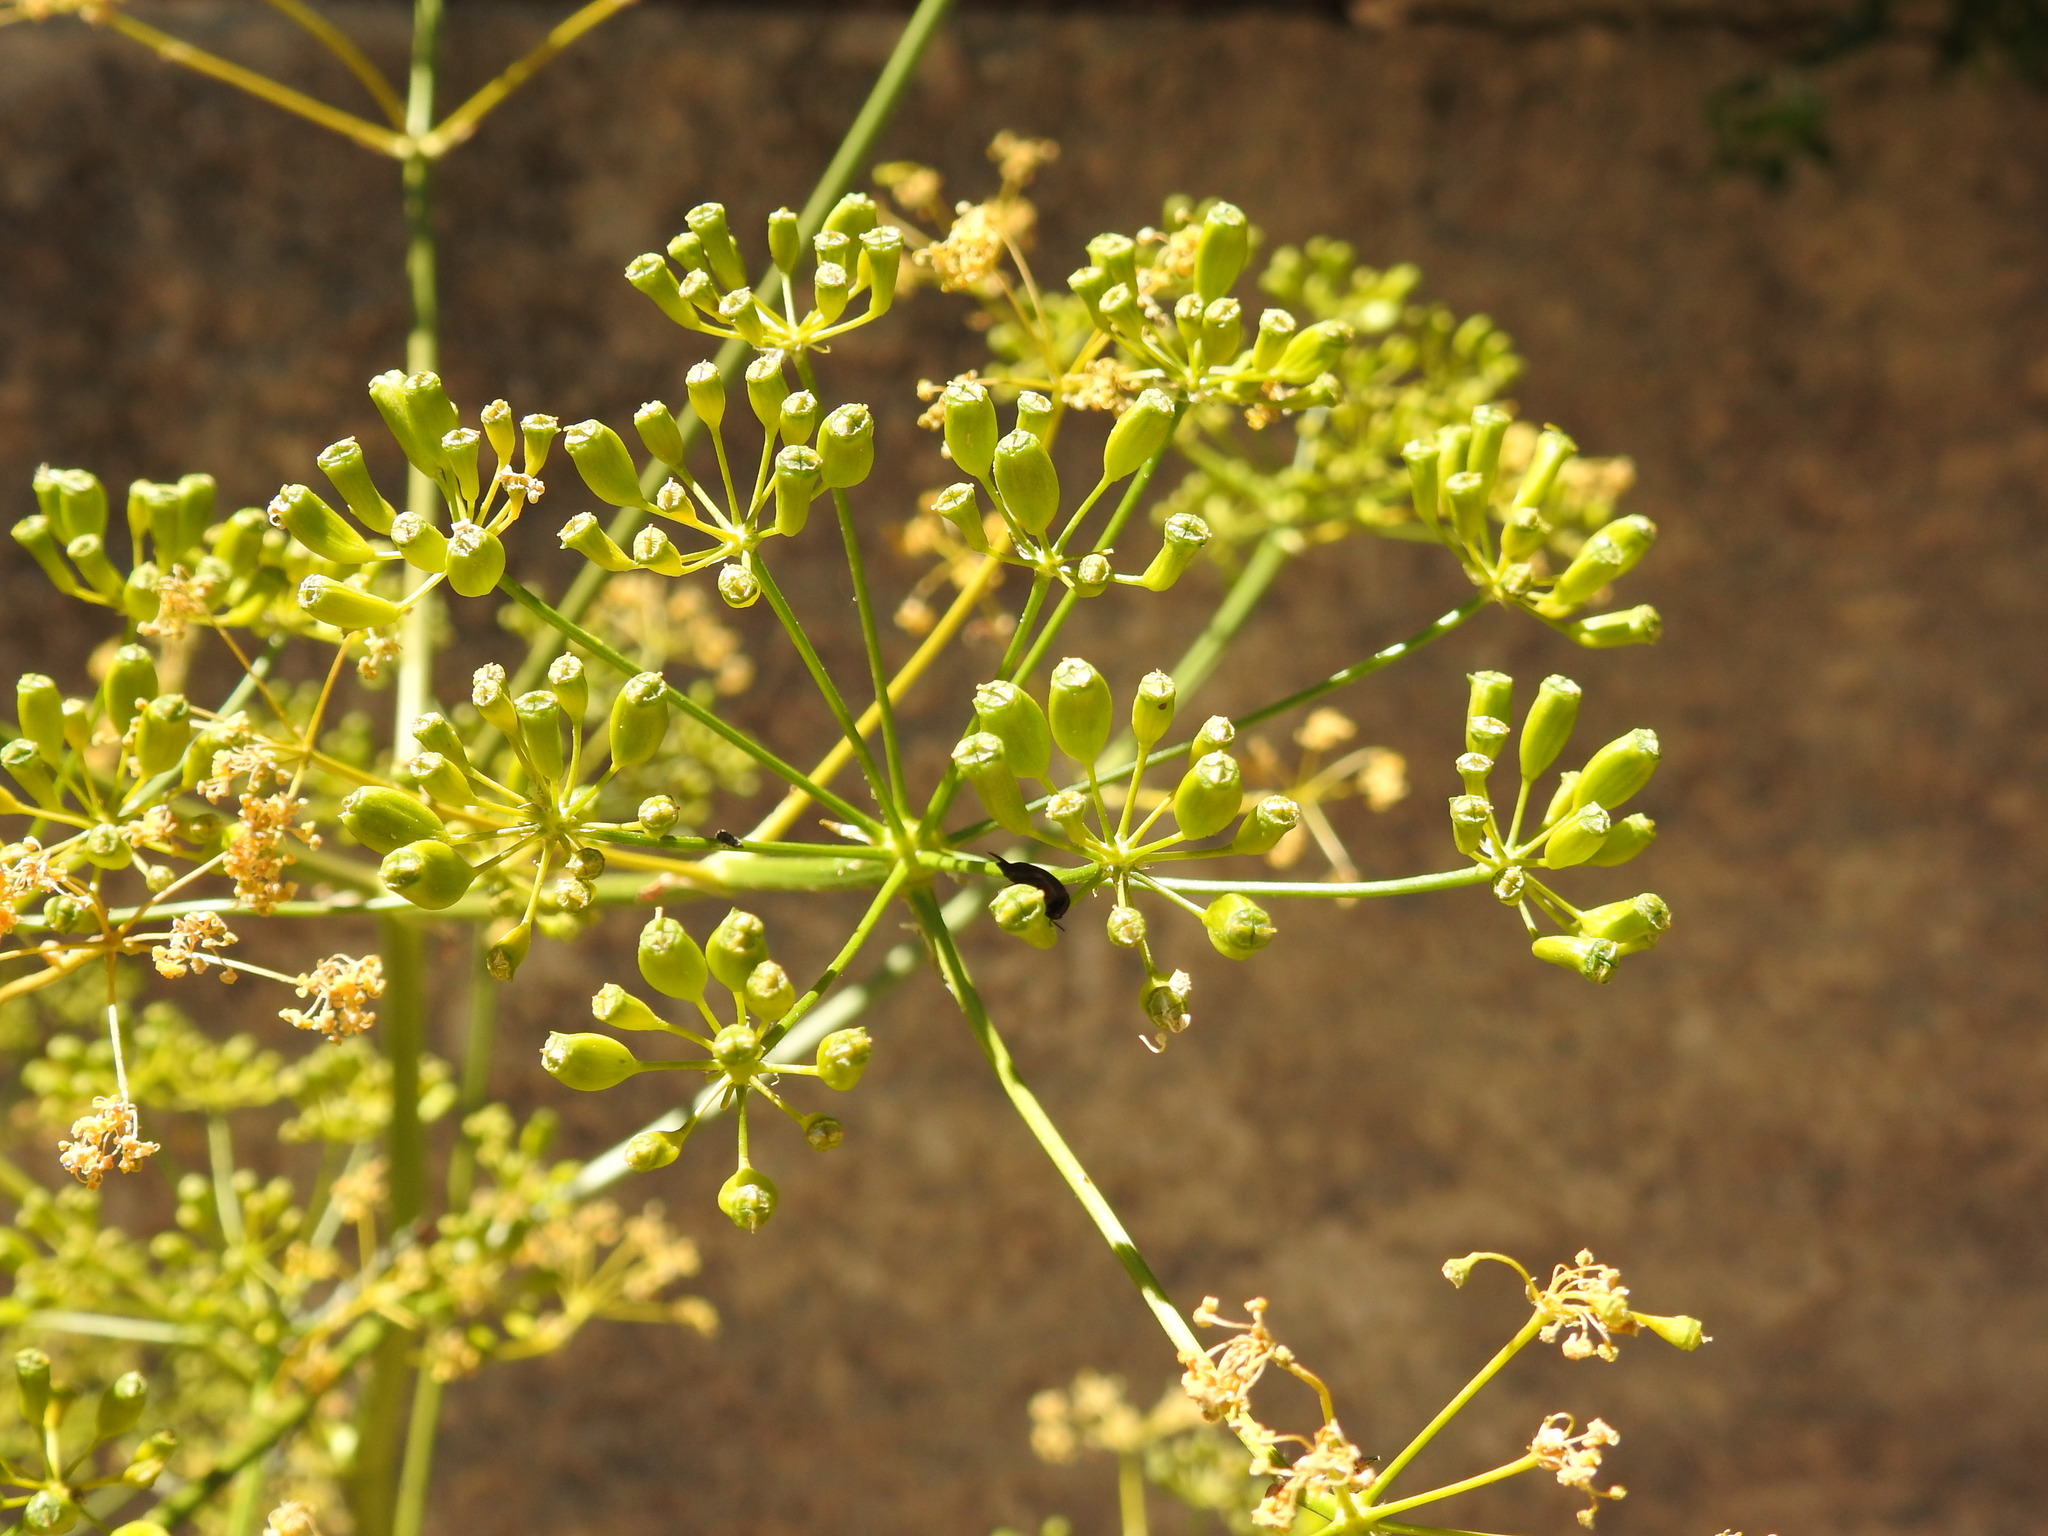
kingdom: Plantae
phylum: Tracheophyta
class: Magnoliopsida
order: Apiales
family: Apiaceae
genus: Opopanax
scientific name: Opopanax chironium
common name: Hercules-all-heal
